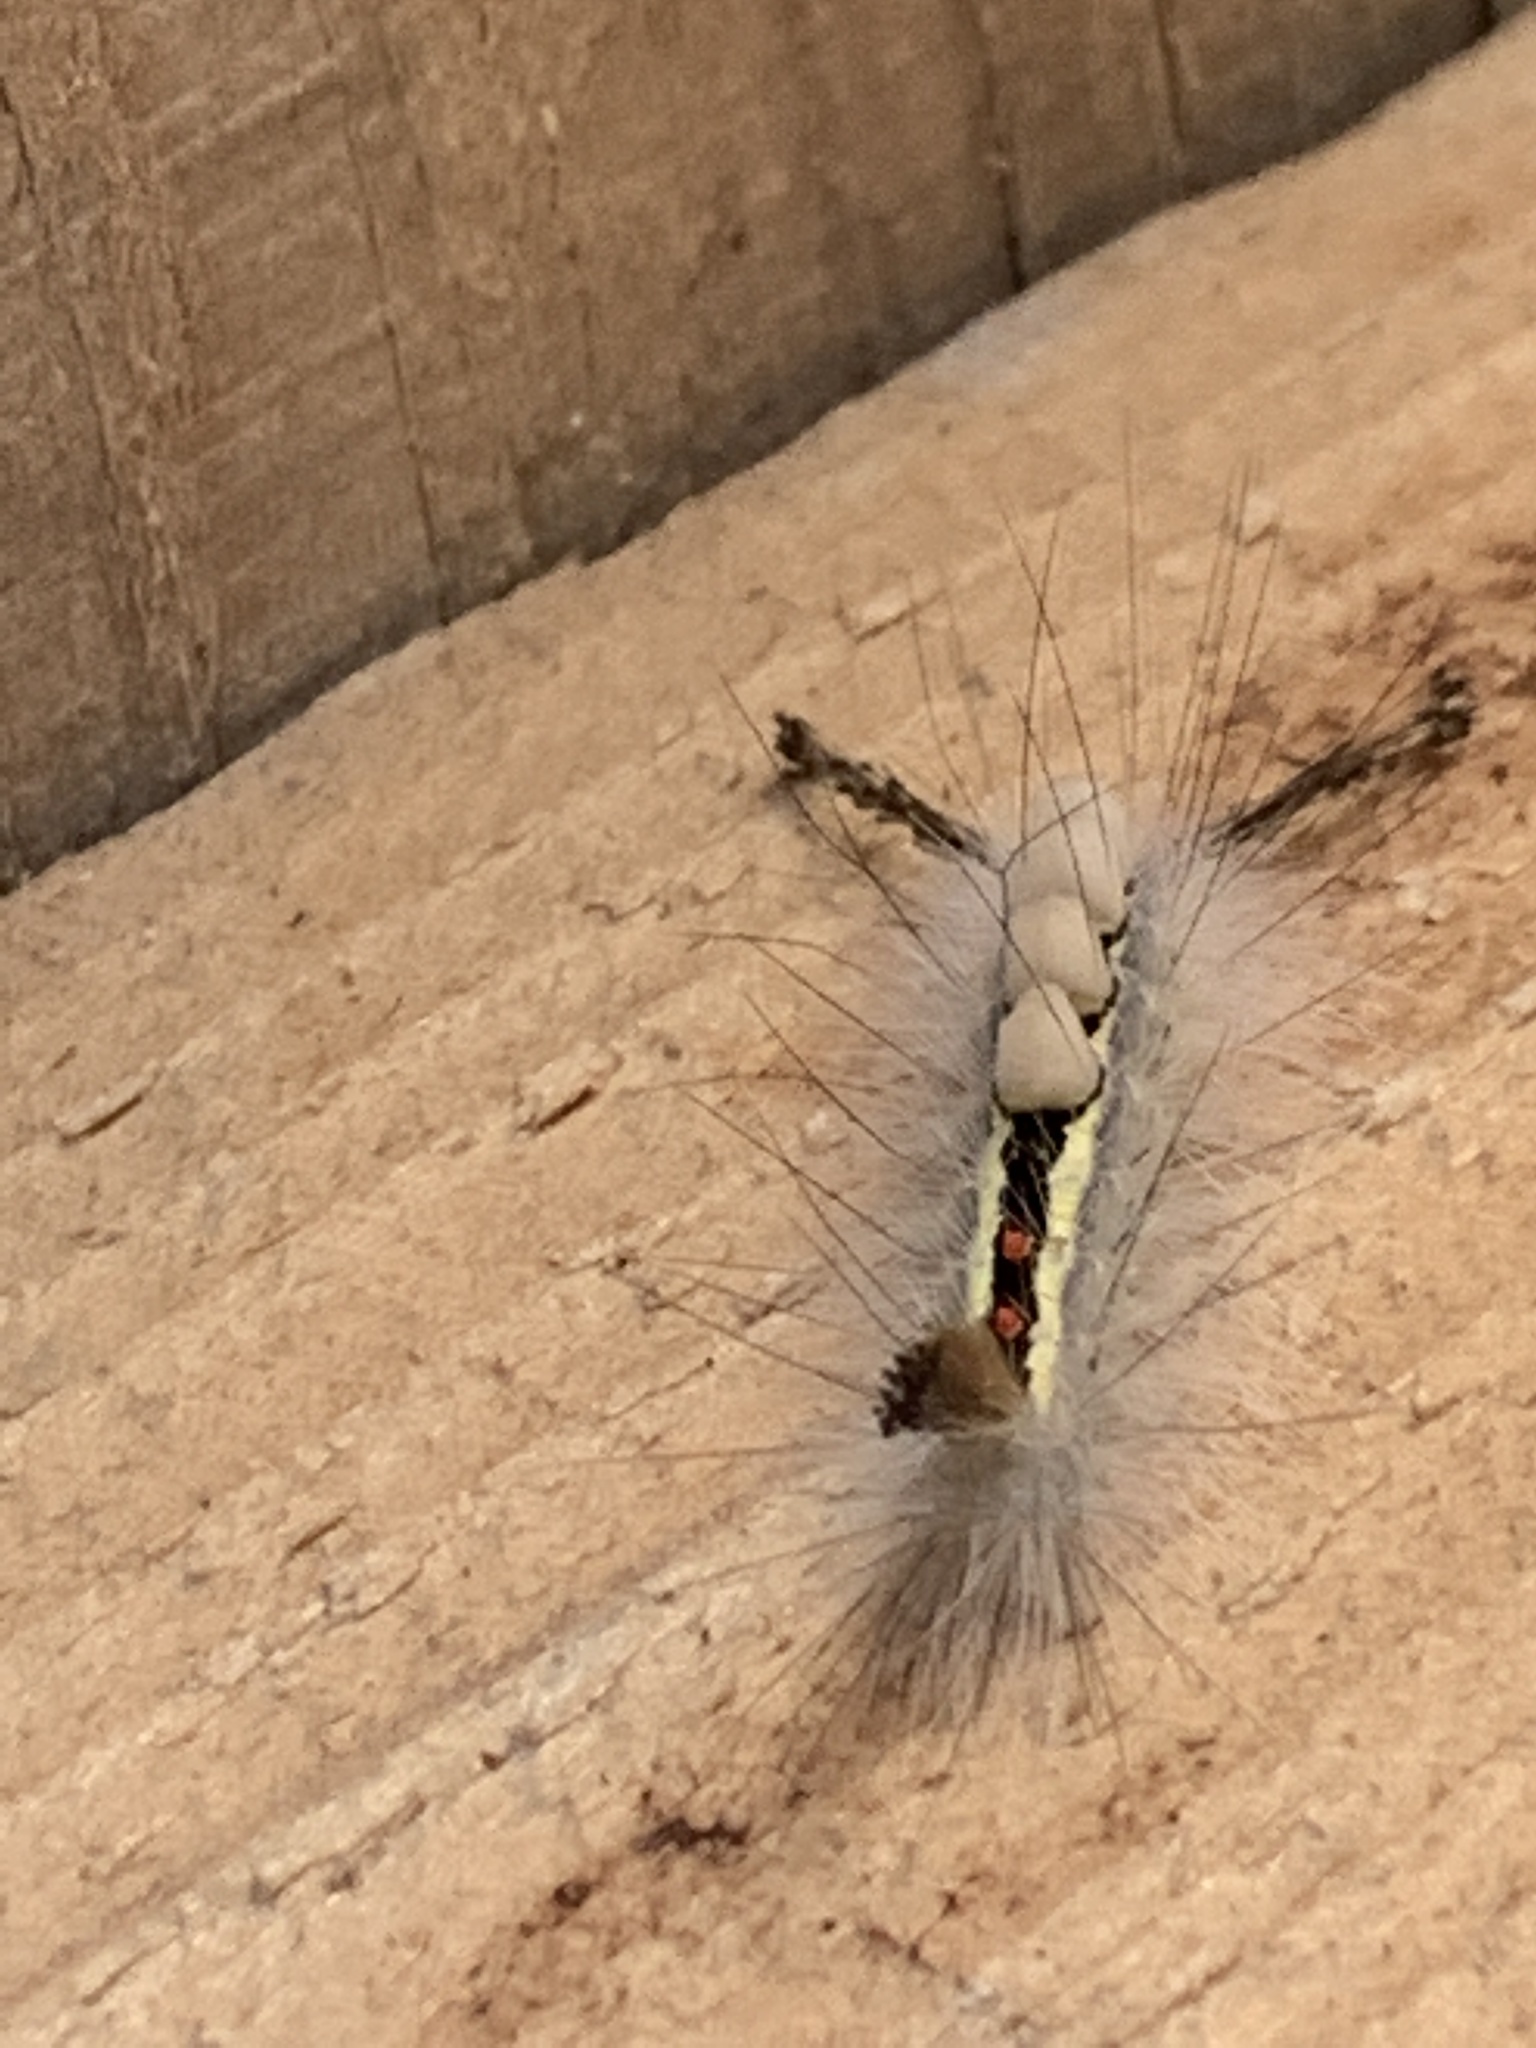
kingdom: Animalia
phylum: Arthropoda
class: Insecta
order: Lepidoptera
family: Erebidae
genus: Orgyia
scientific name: Orgyia leucostigma
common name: White-marked tussock moth
